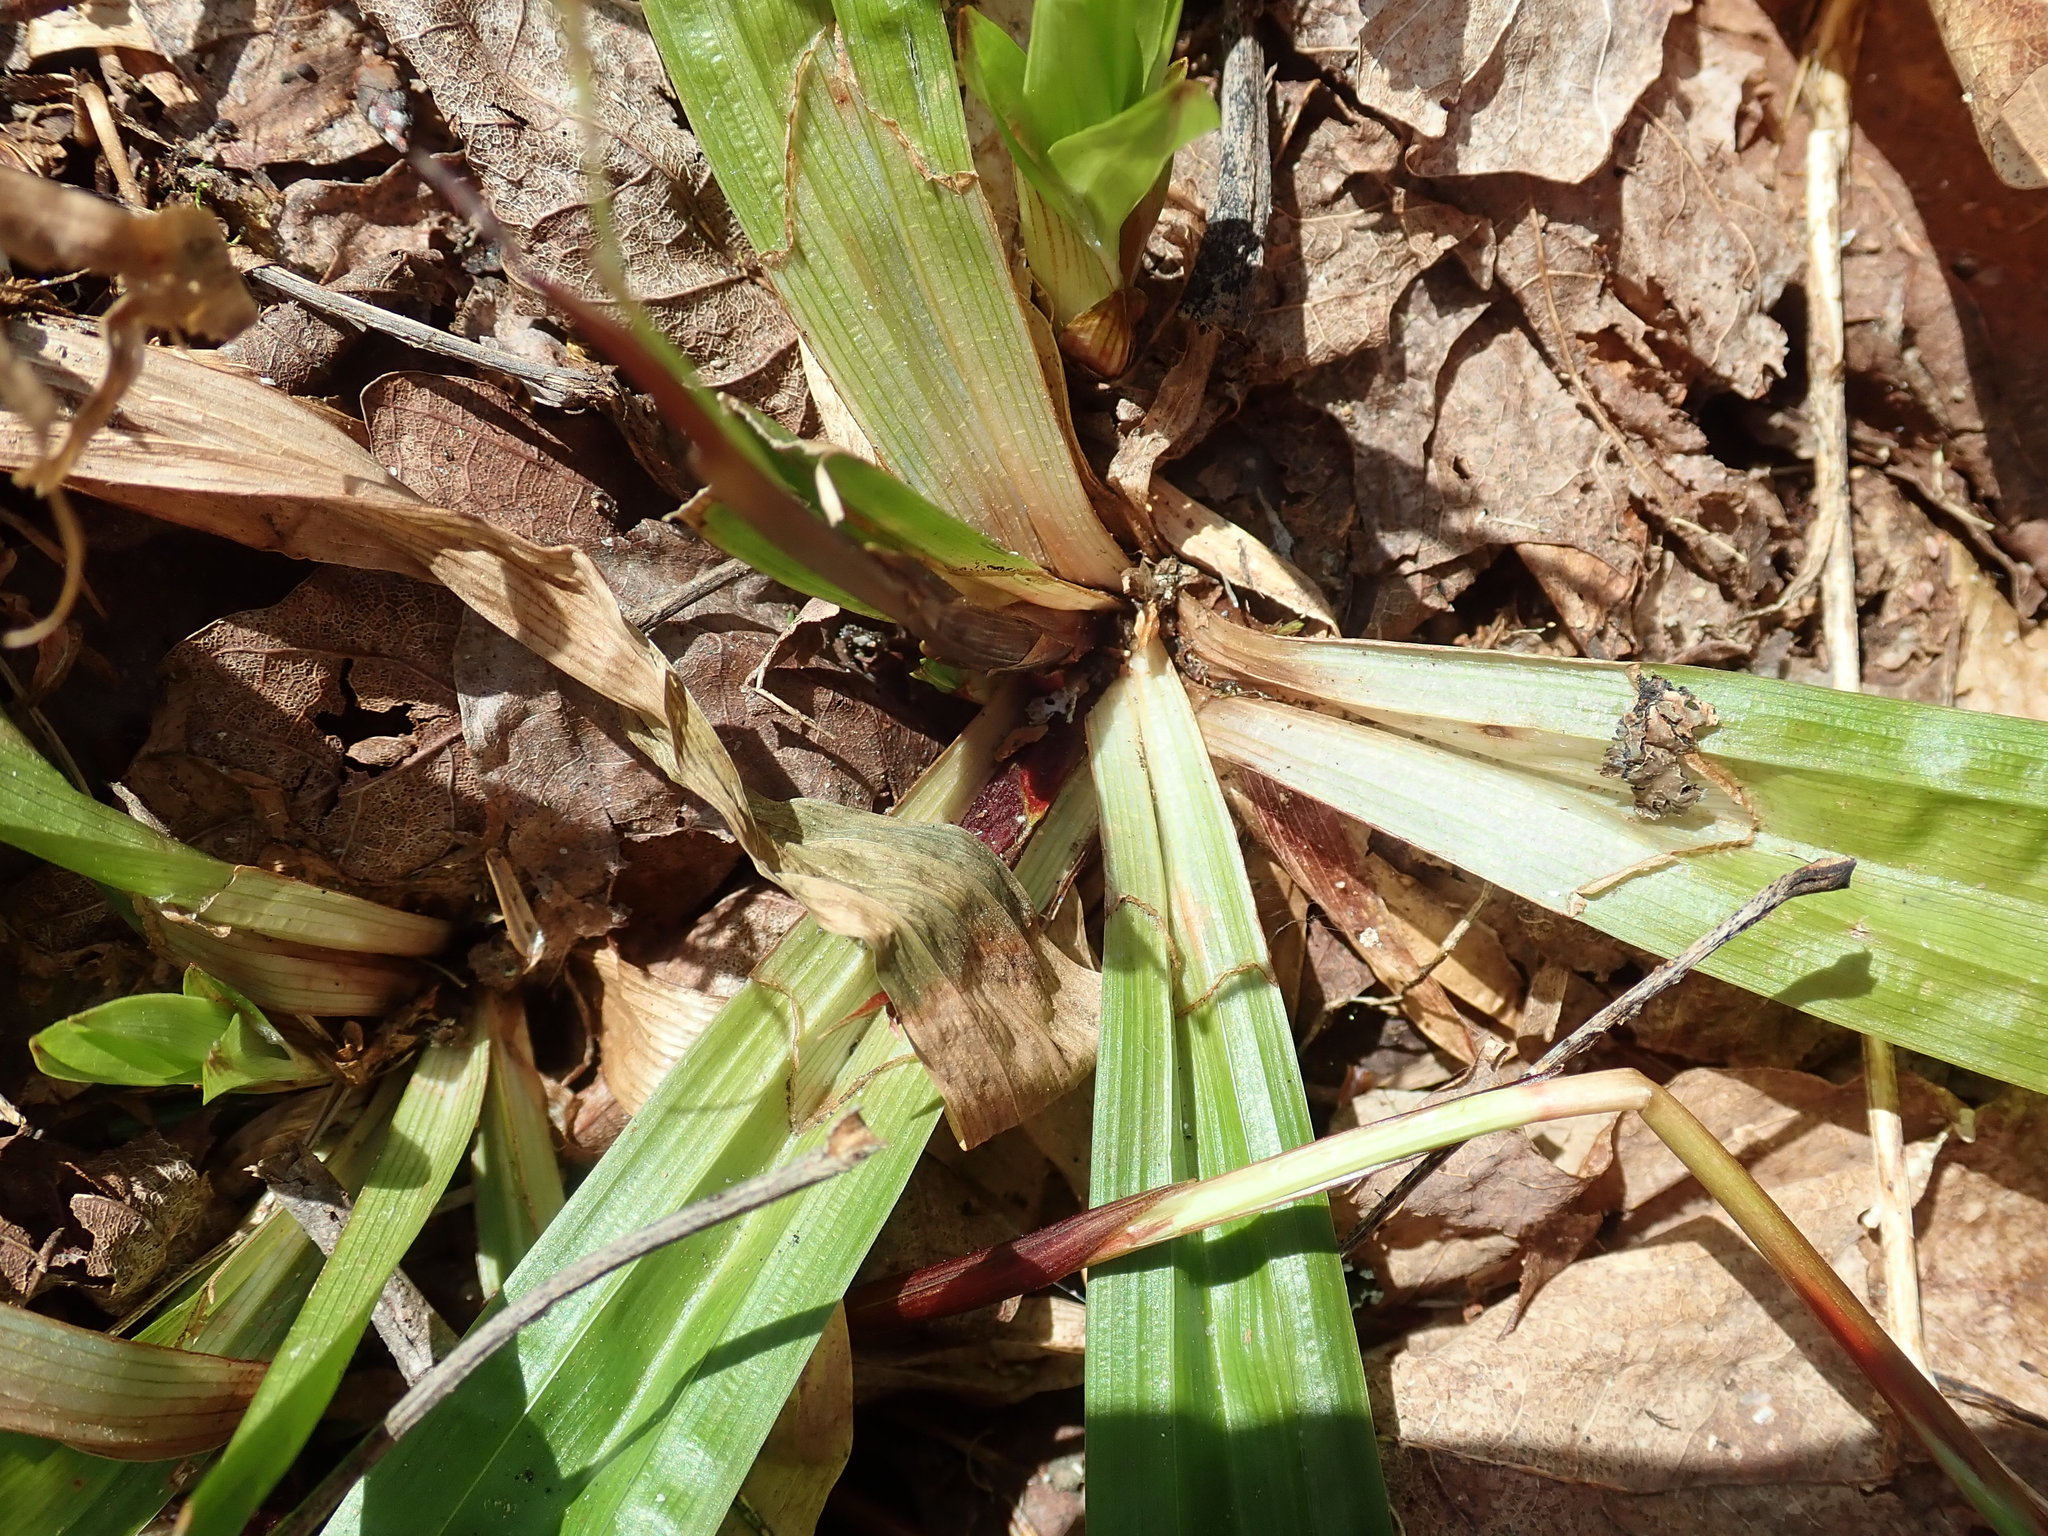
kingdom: Plantae
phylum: Tracheophyta
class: Liliopsida
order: Poales
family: Cyperaceae
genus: Carex
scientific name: Carex plantaginea
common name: Plantain-leaved sedge
